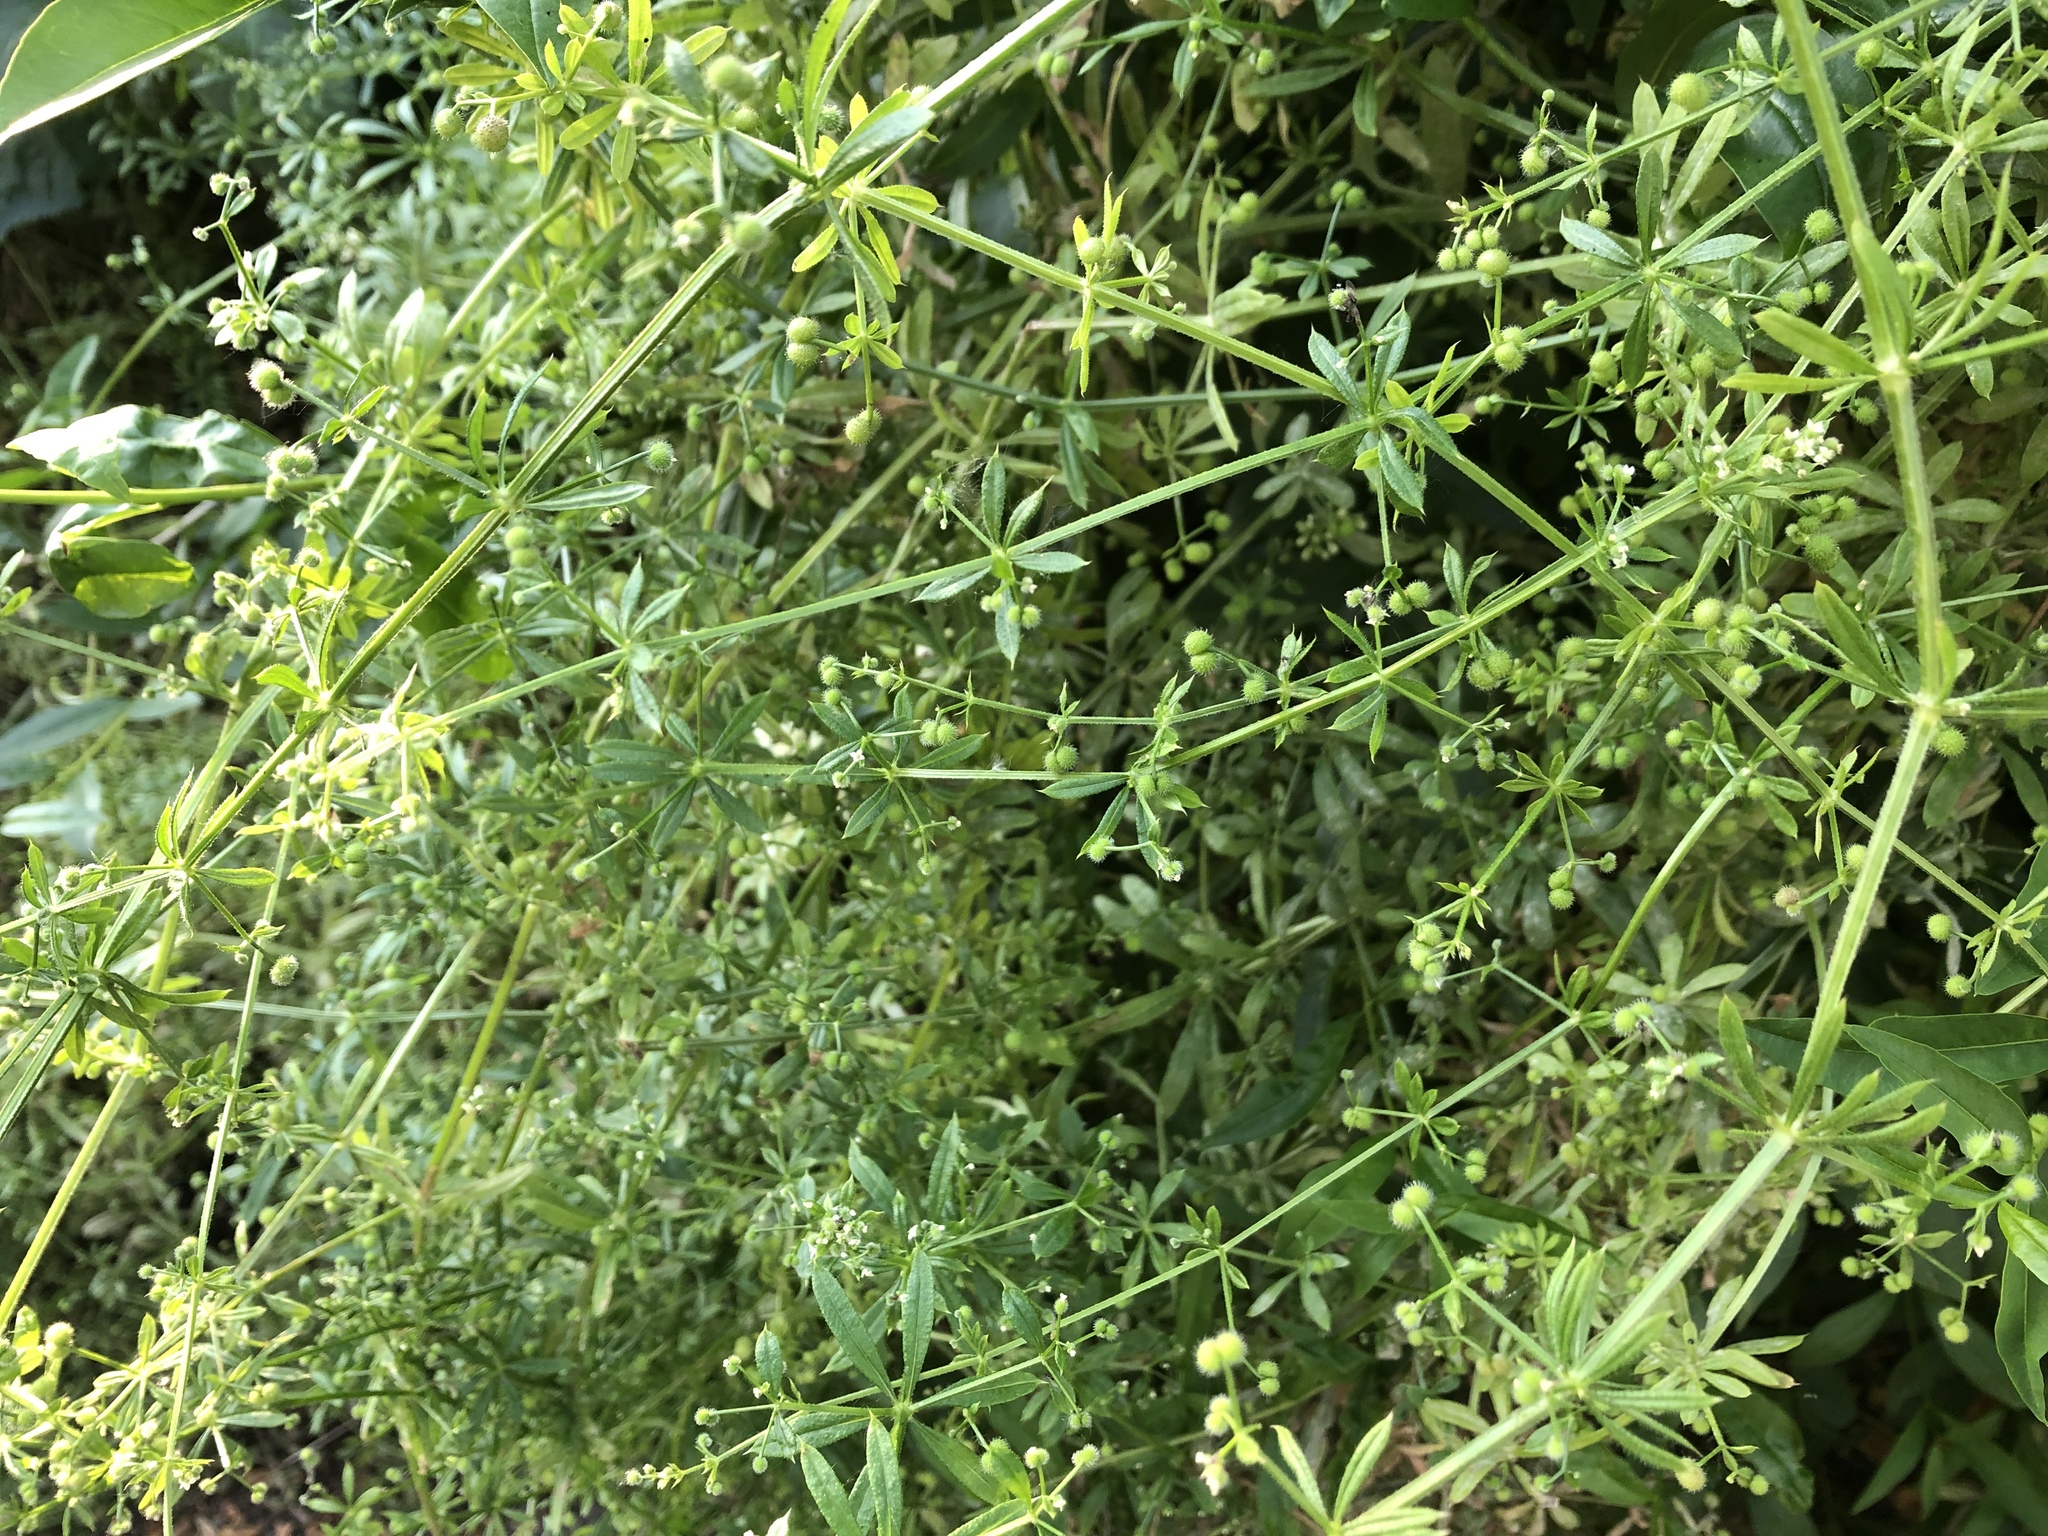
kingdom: Plantae
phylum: Tracheophyta
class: Magnoliopsida
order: Gentianales
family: Rubiaceae
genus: Galium
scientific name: Galium aparine
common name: Cleavers
